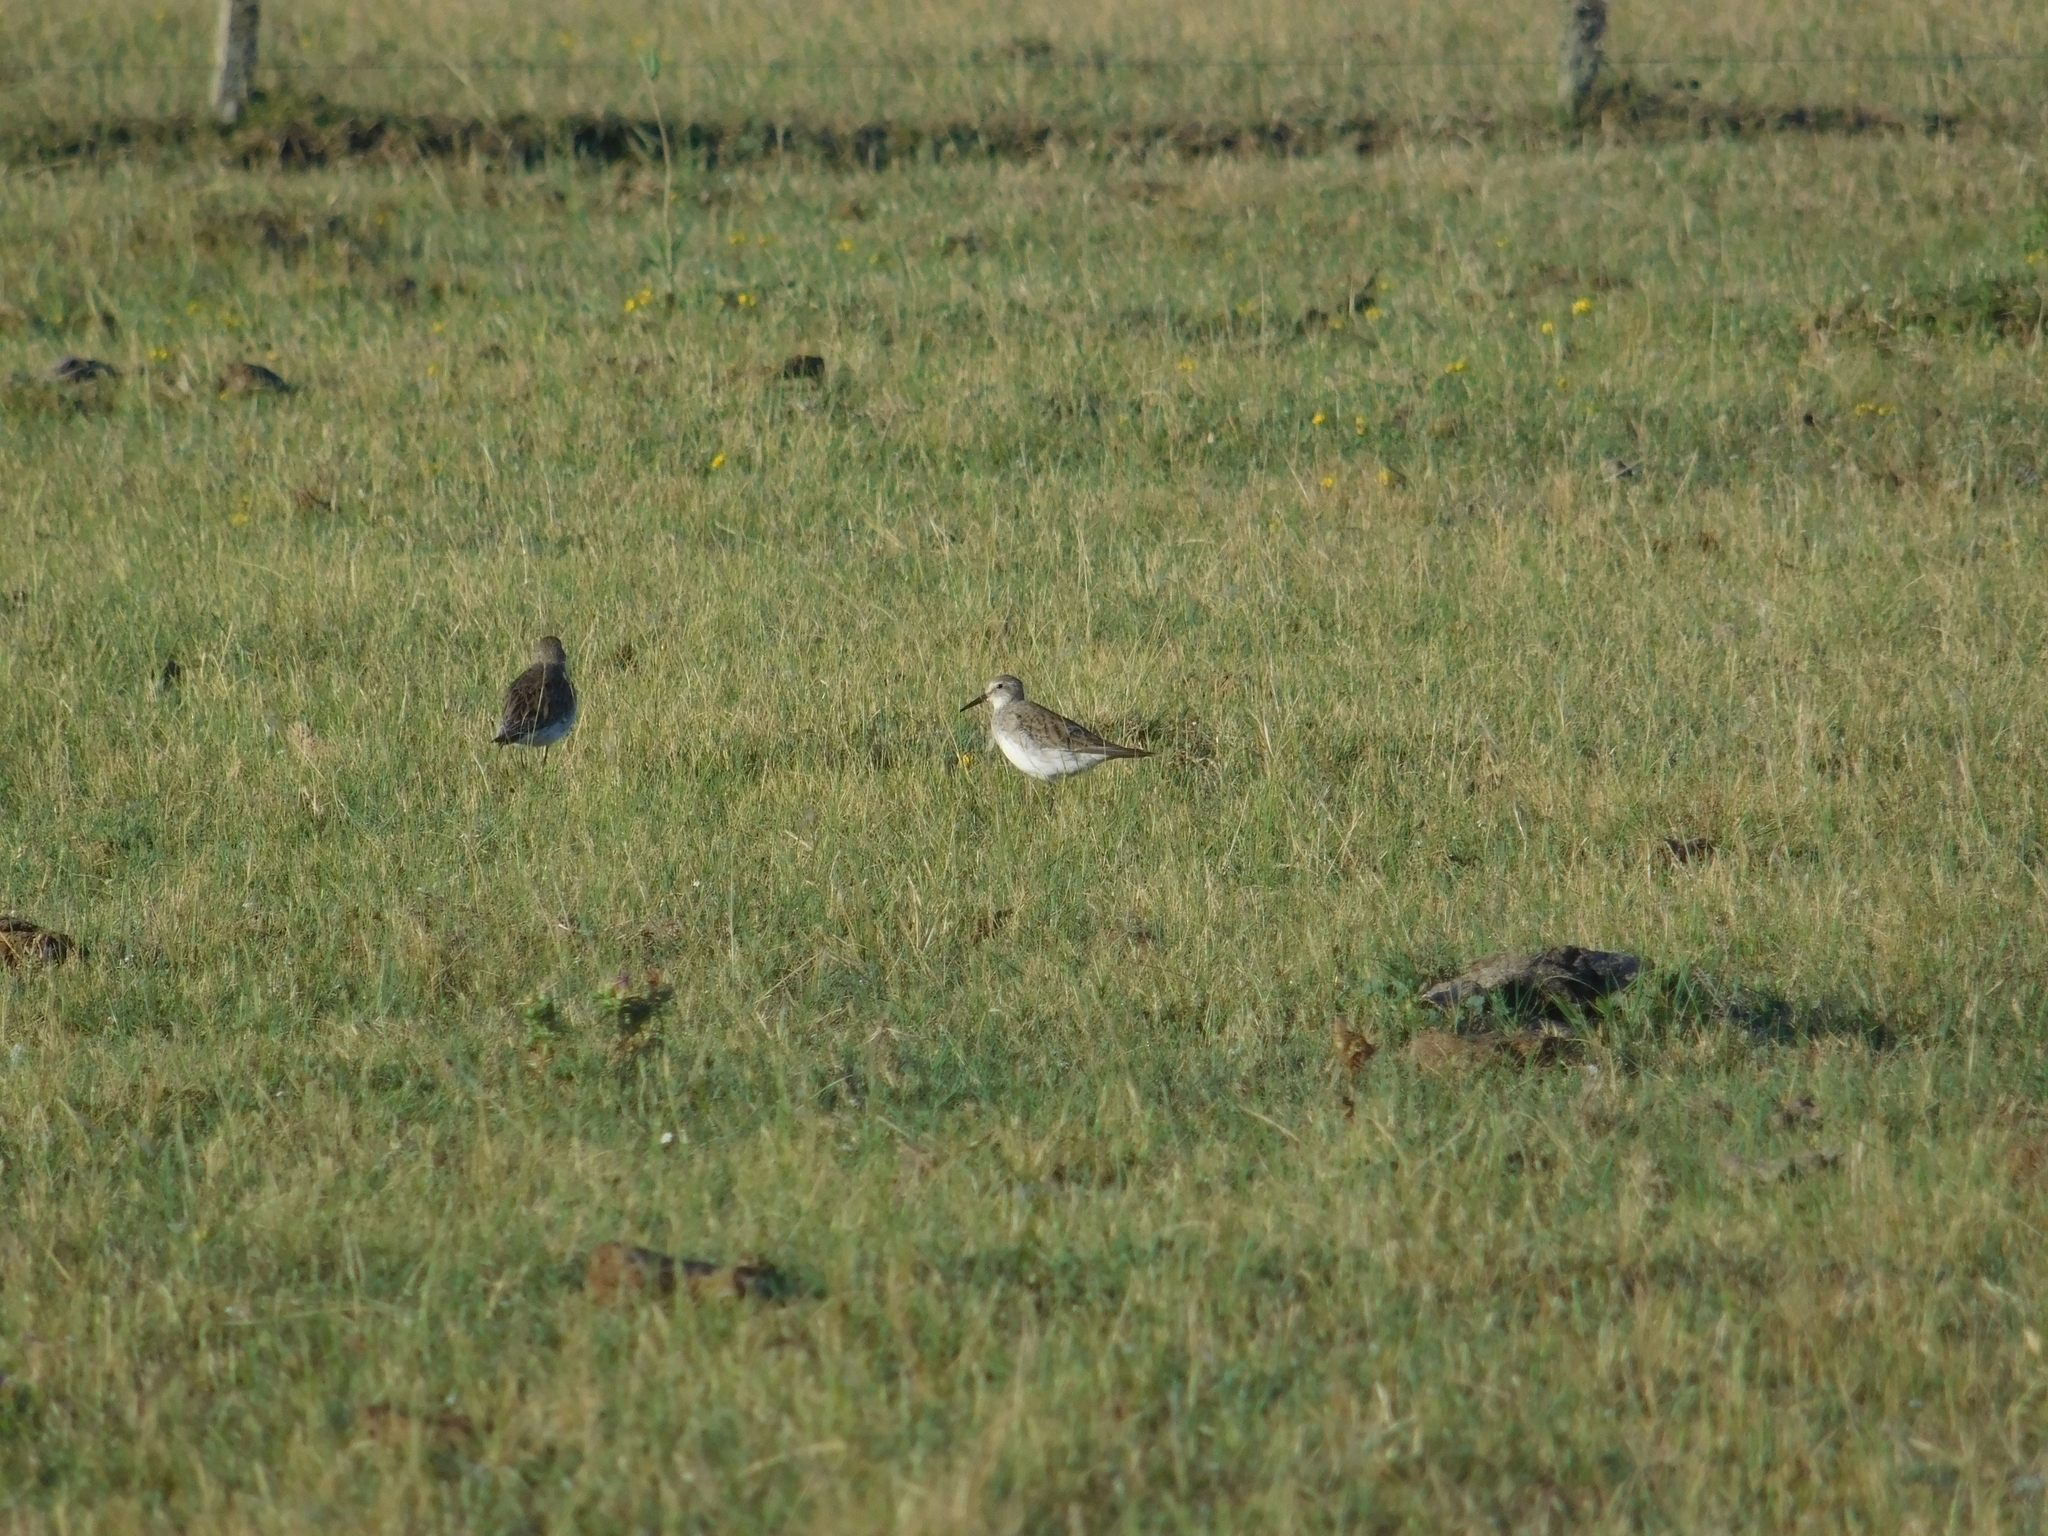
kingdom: Animalia
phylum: Chordata
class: Aves
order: Charadriiformes
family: Scolopacidae
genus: Calidris
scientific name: Calidris fuscicollis
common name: White-rumped sandpiper
